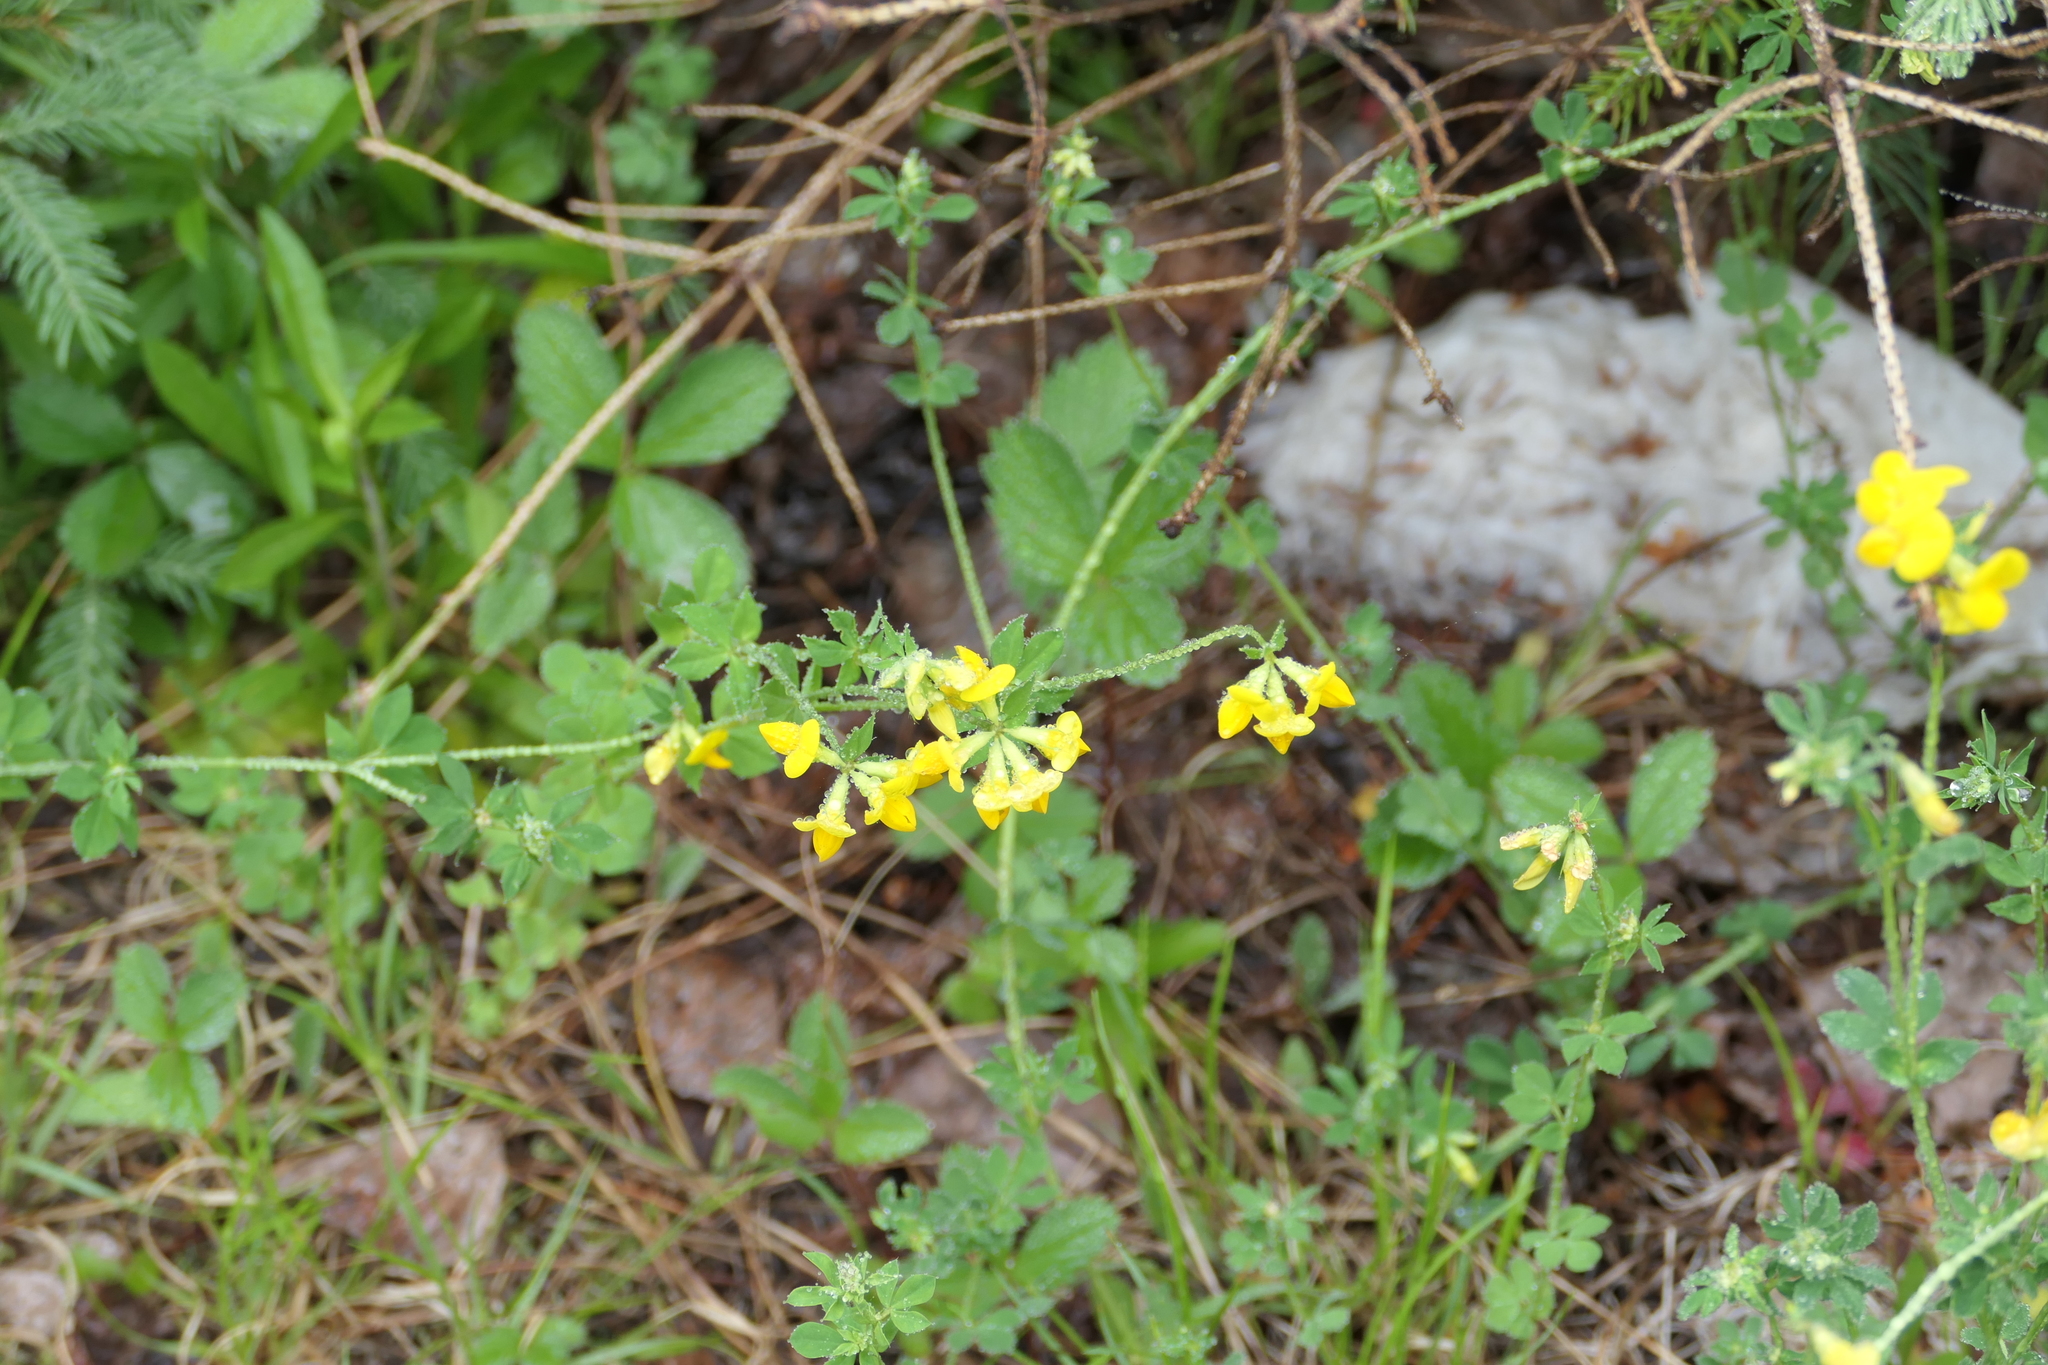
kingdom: Plantae
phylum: Tracheophyta
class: Magnoliopsida
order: Fabales
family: Fabaceae
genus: Lotus
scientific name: Lotus corniculatus
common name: Common bird's-foot-trefoil
